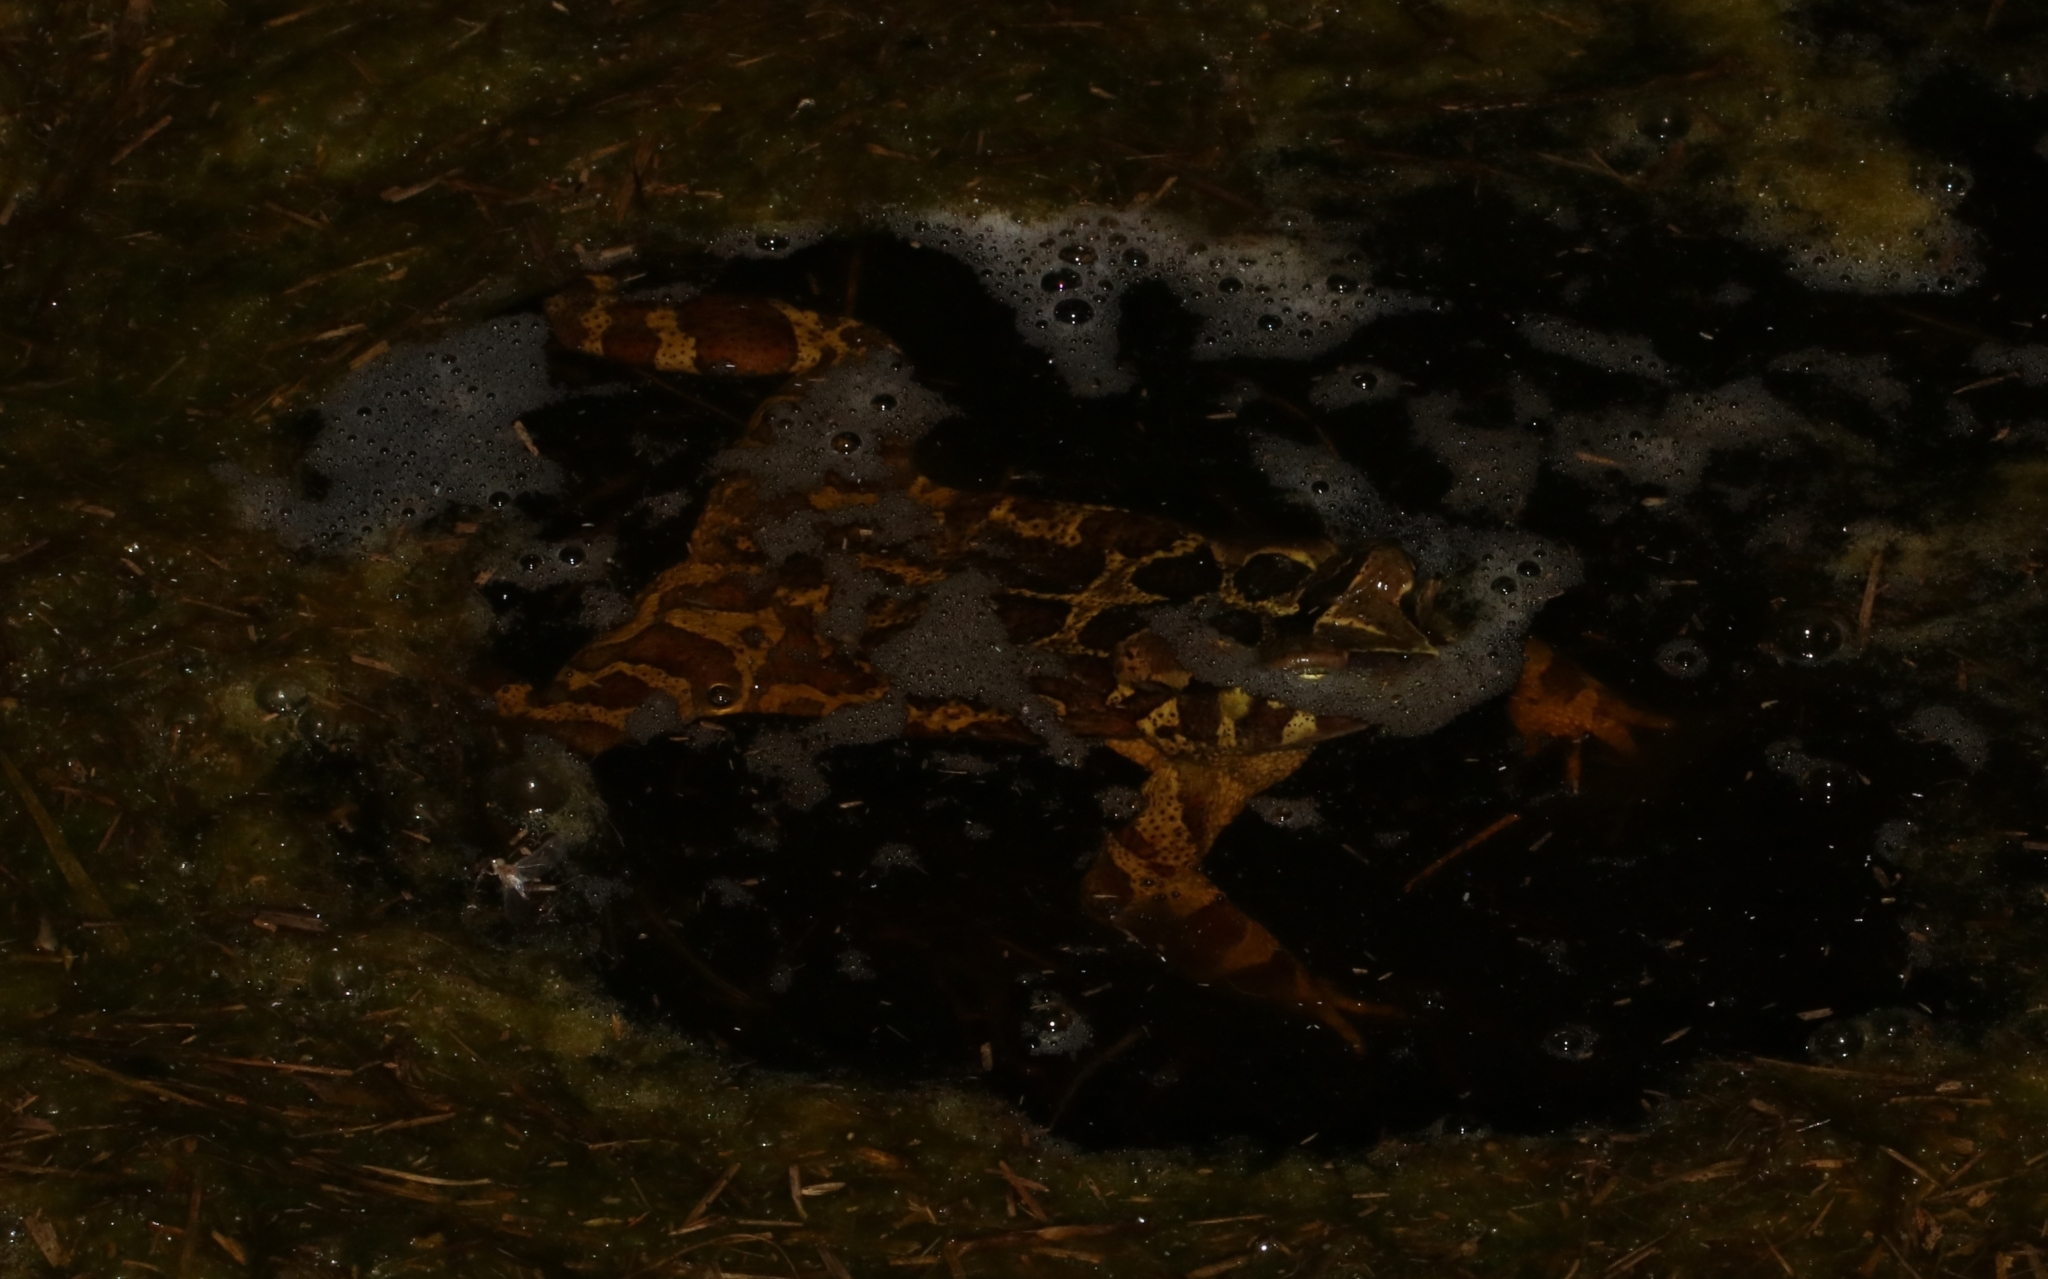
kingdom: Animalia
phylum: Chordata
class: Amphibia
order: Anura
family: Bufonidae
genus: Sclerophrys
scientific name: Sclerophrys pantherina
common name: Panther toad
